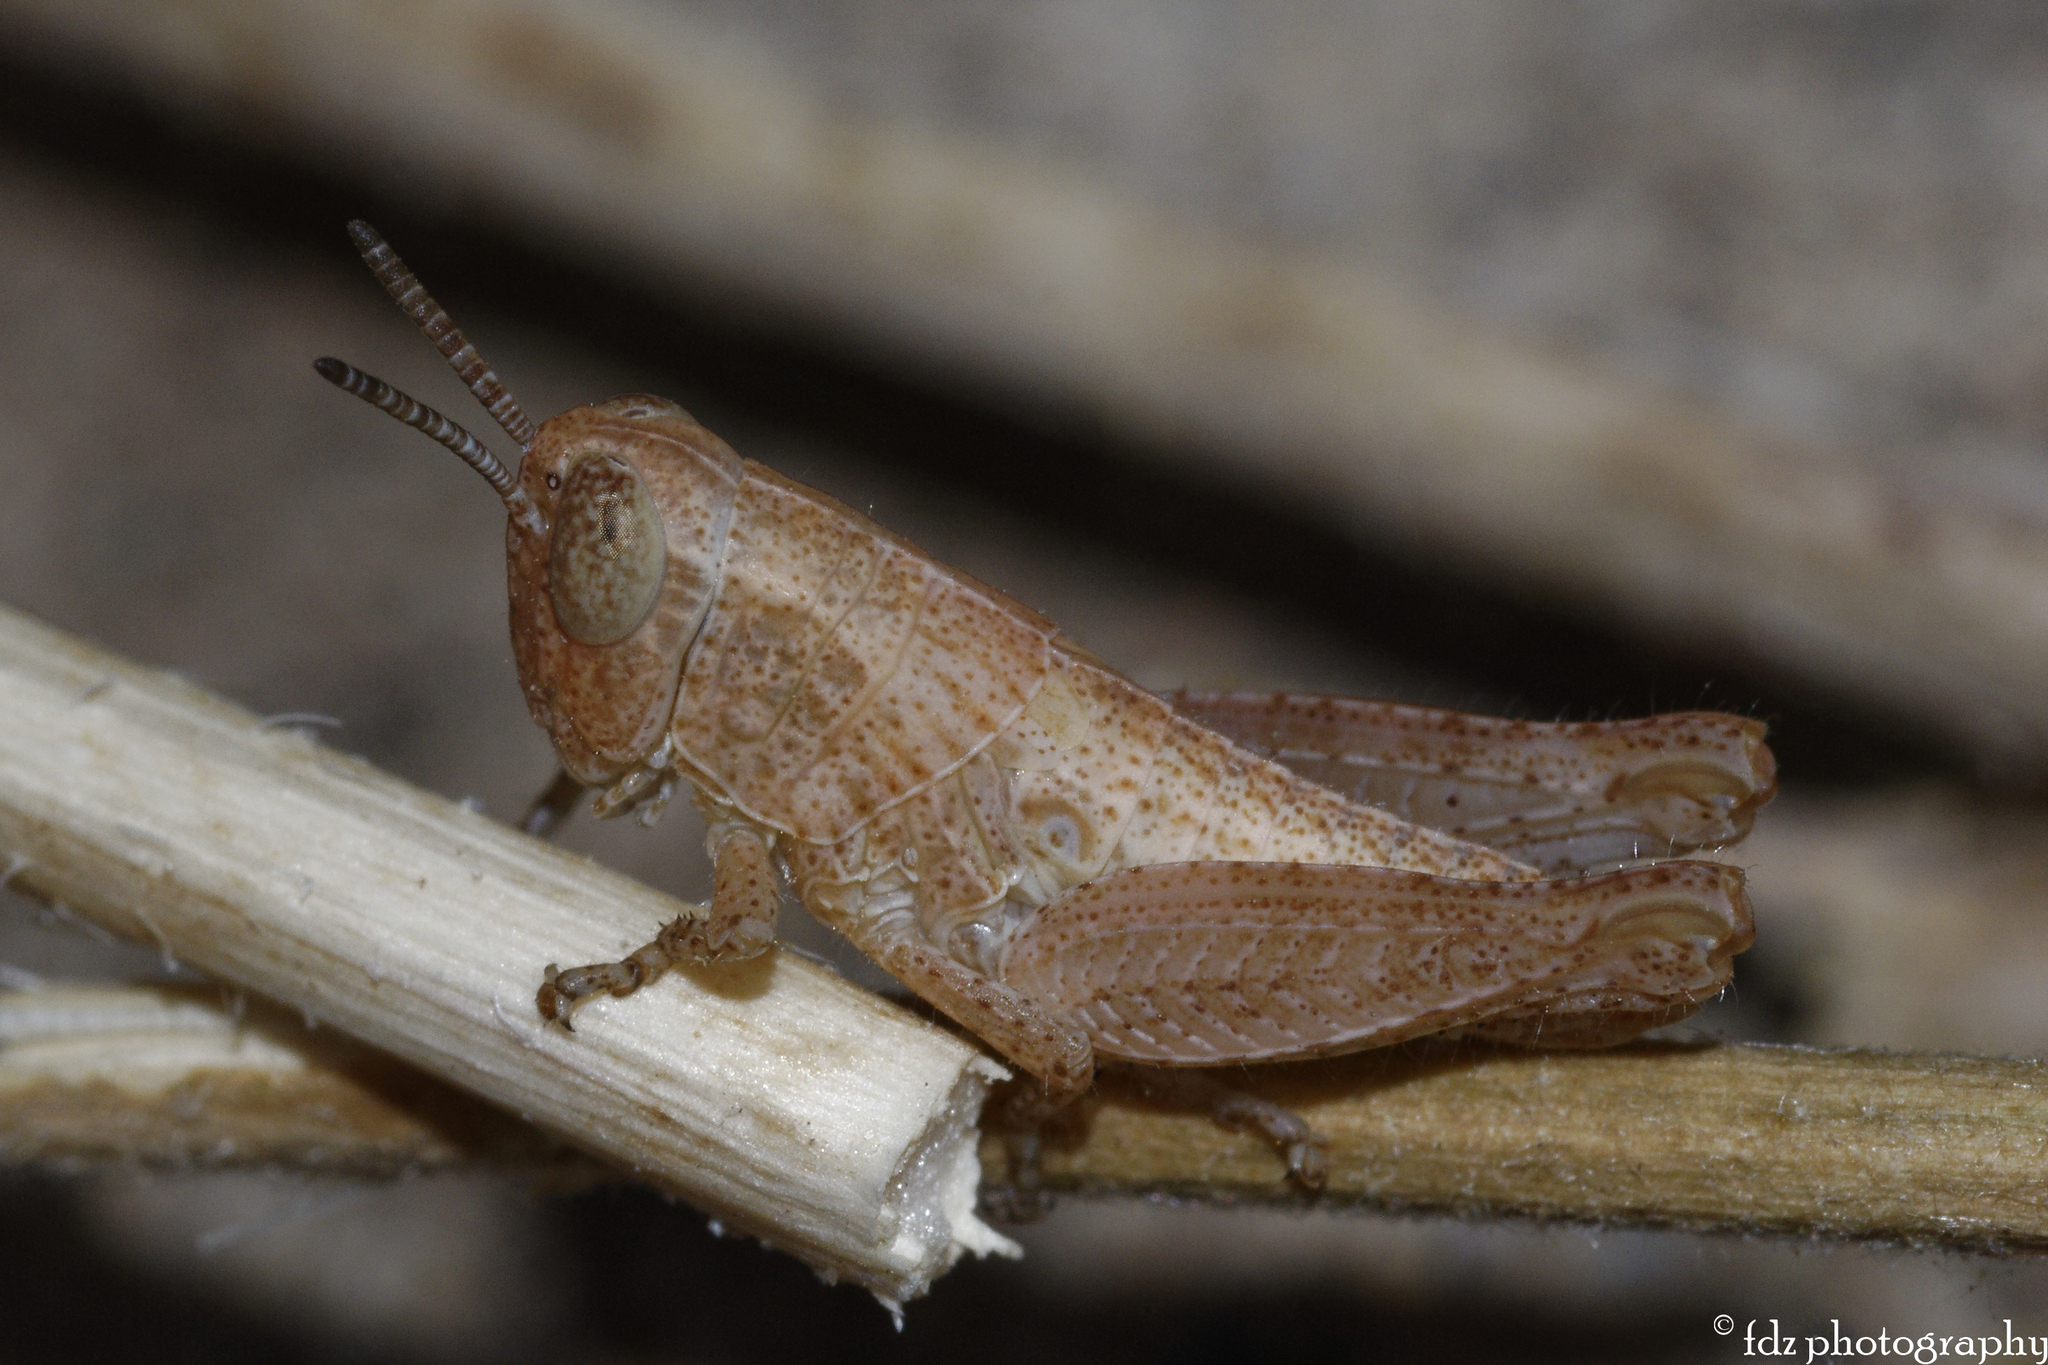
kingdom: Animalia
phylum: Arthropoda
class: Insecta
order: Orthoptera
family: Acrididae
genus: Pezotettix
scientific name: Pezotettix giornae
